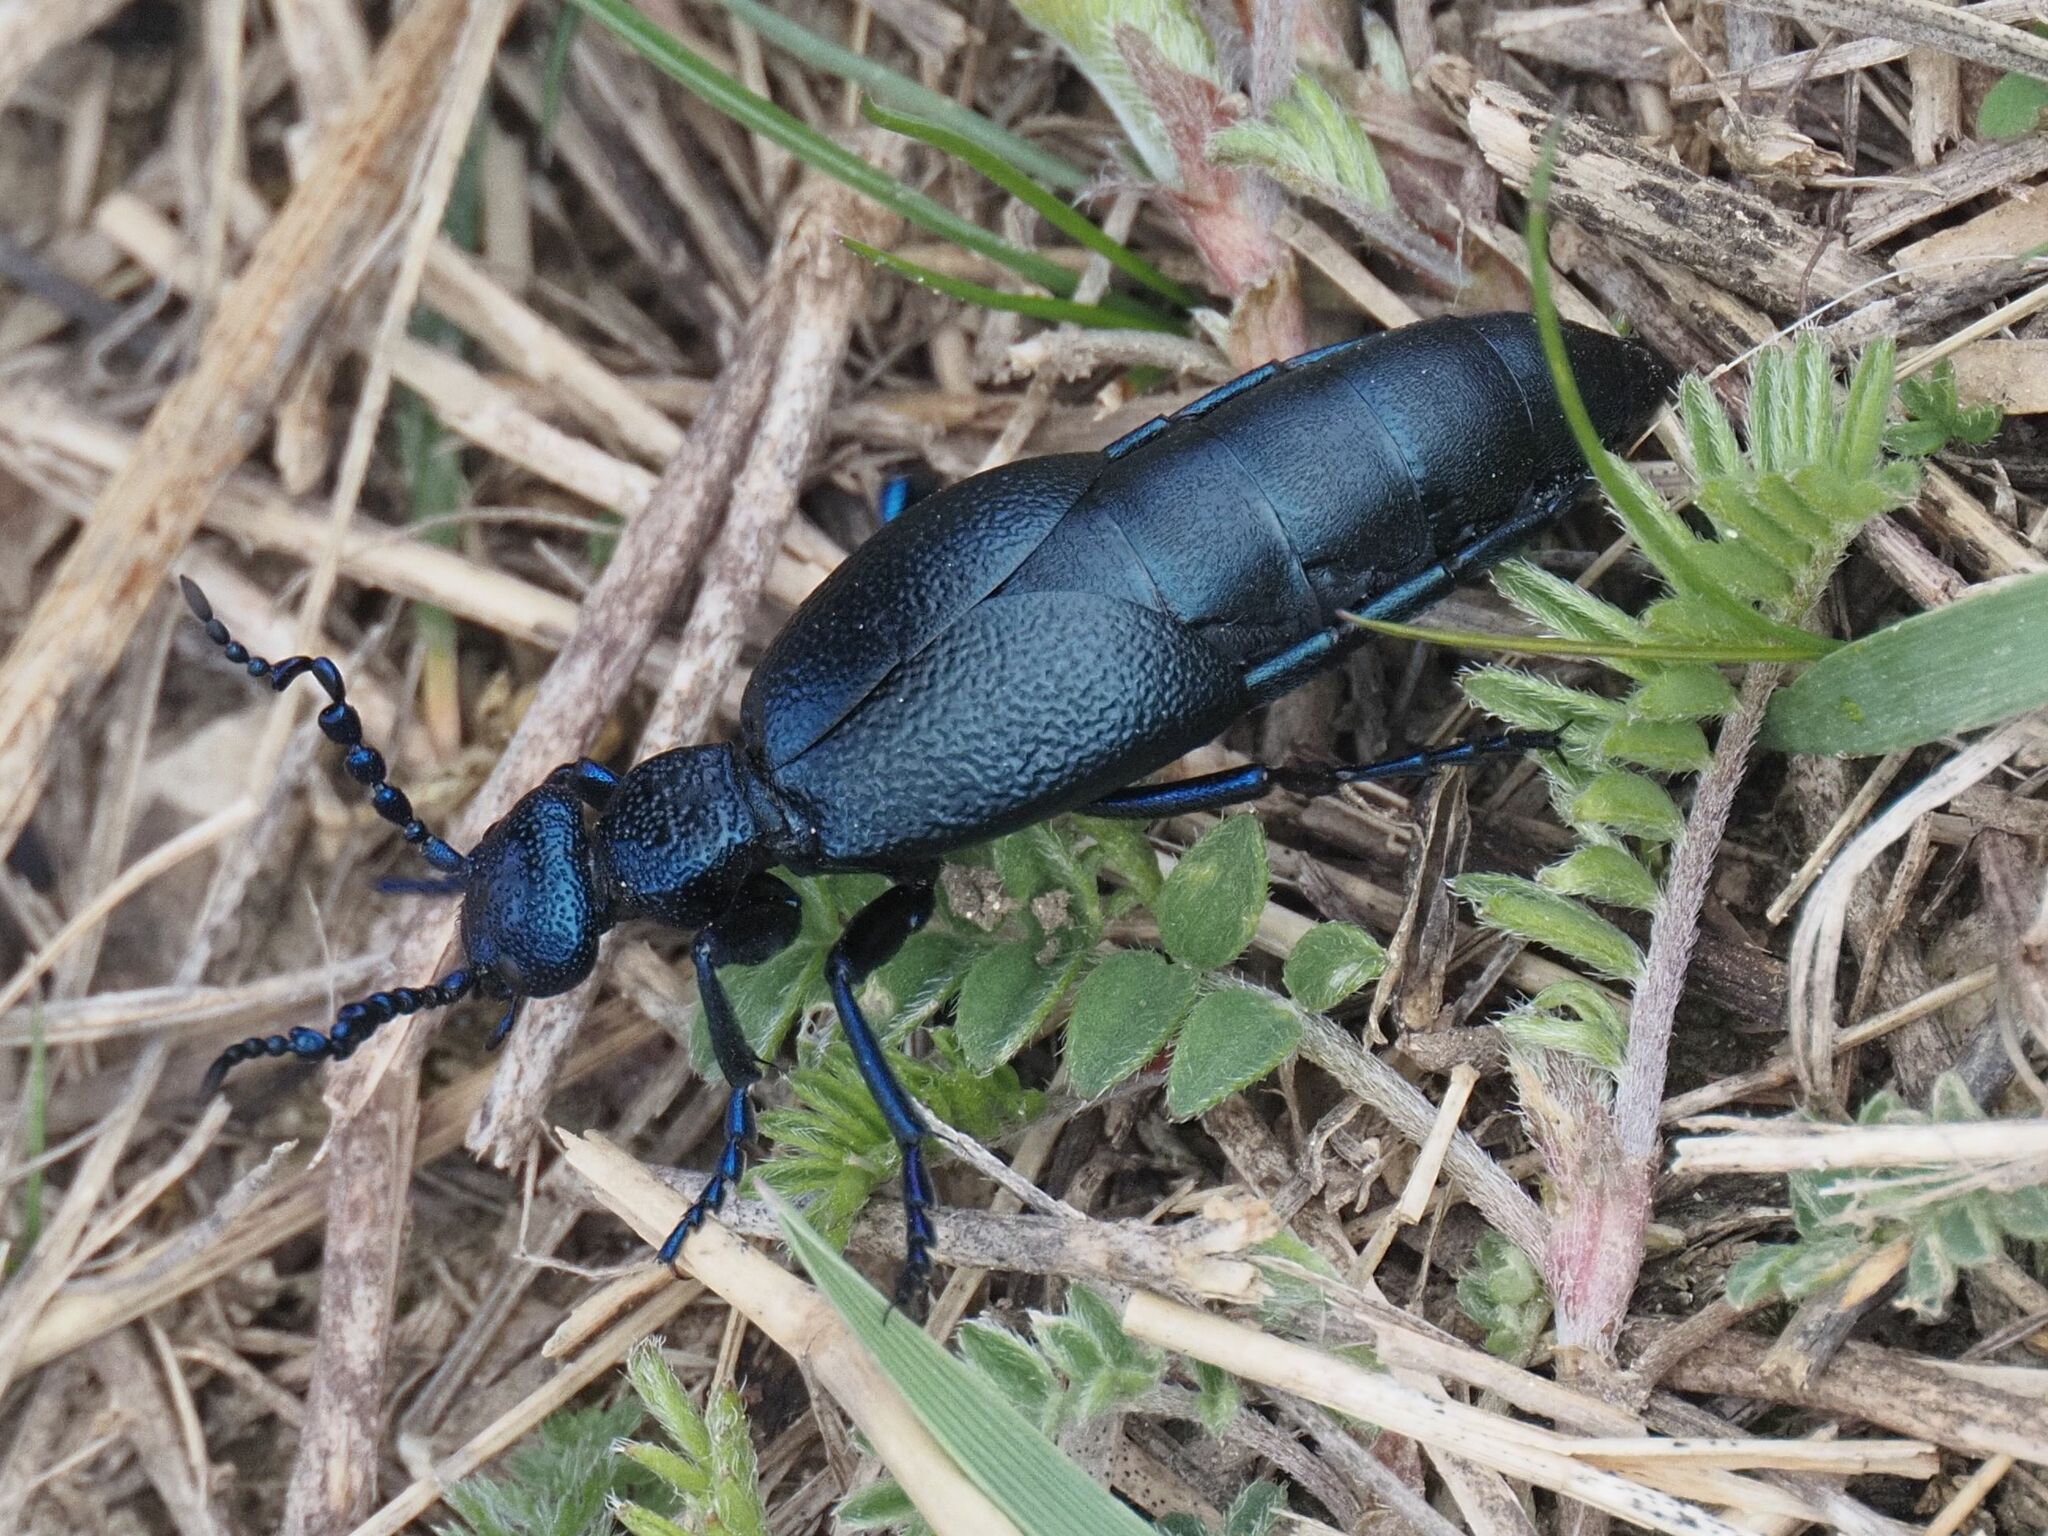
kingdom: Animalia
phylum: Arthropoda
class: Insecta
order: Coleoptera
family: Meloidae
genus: Meloe
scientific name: Meloe proscarabaeus
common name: Black oil-beetle
